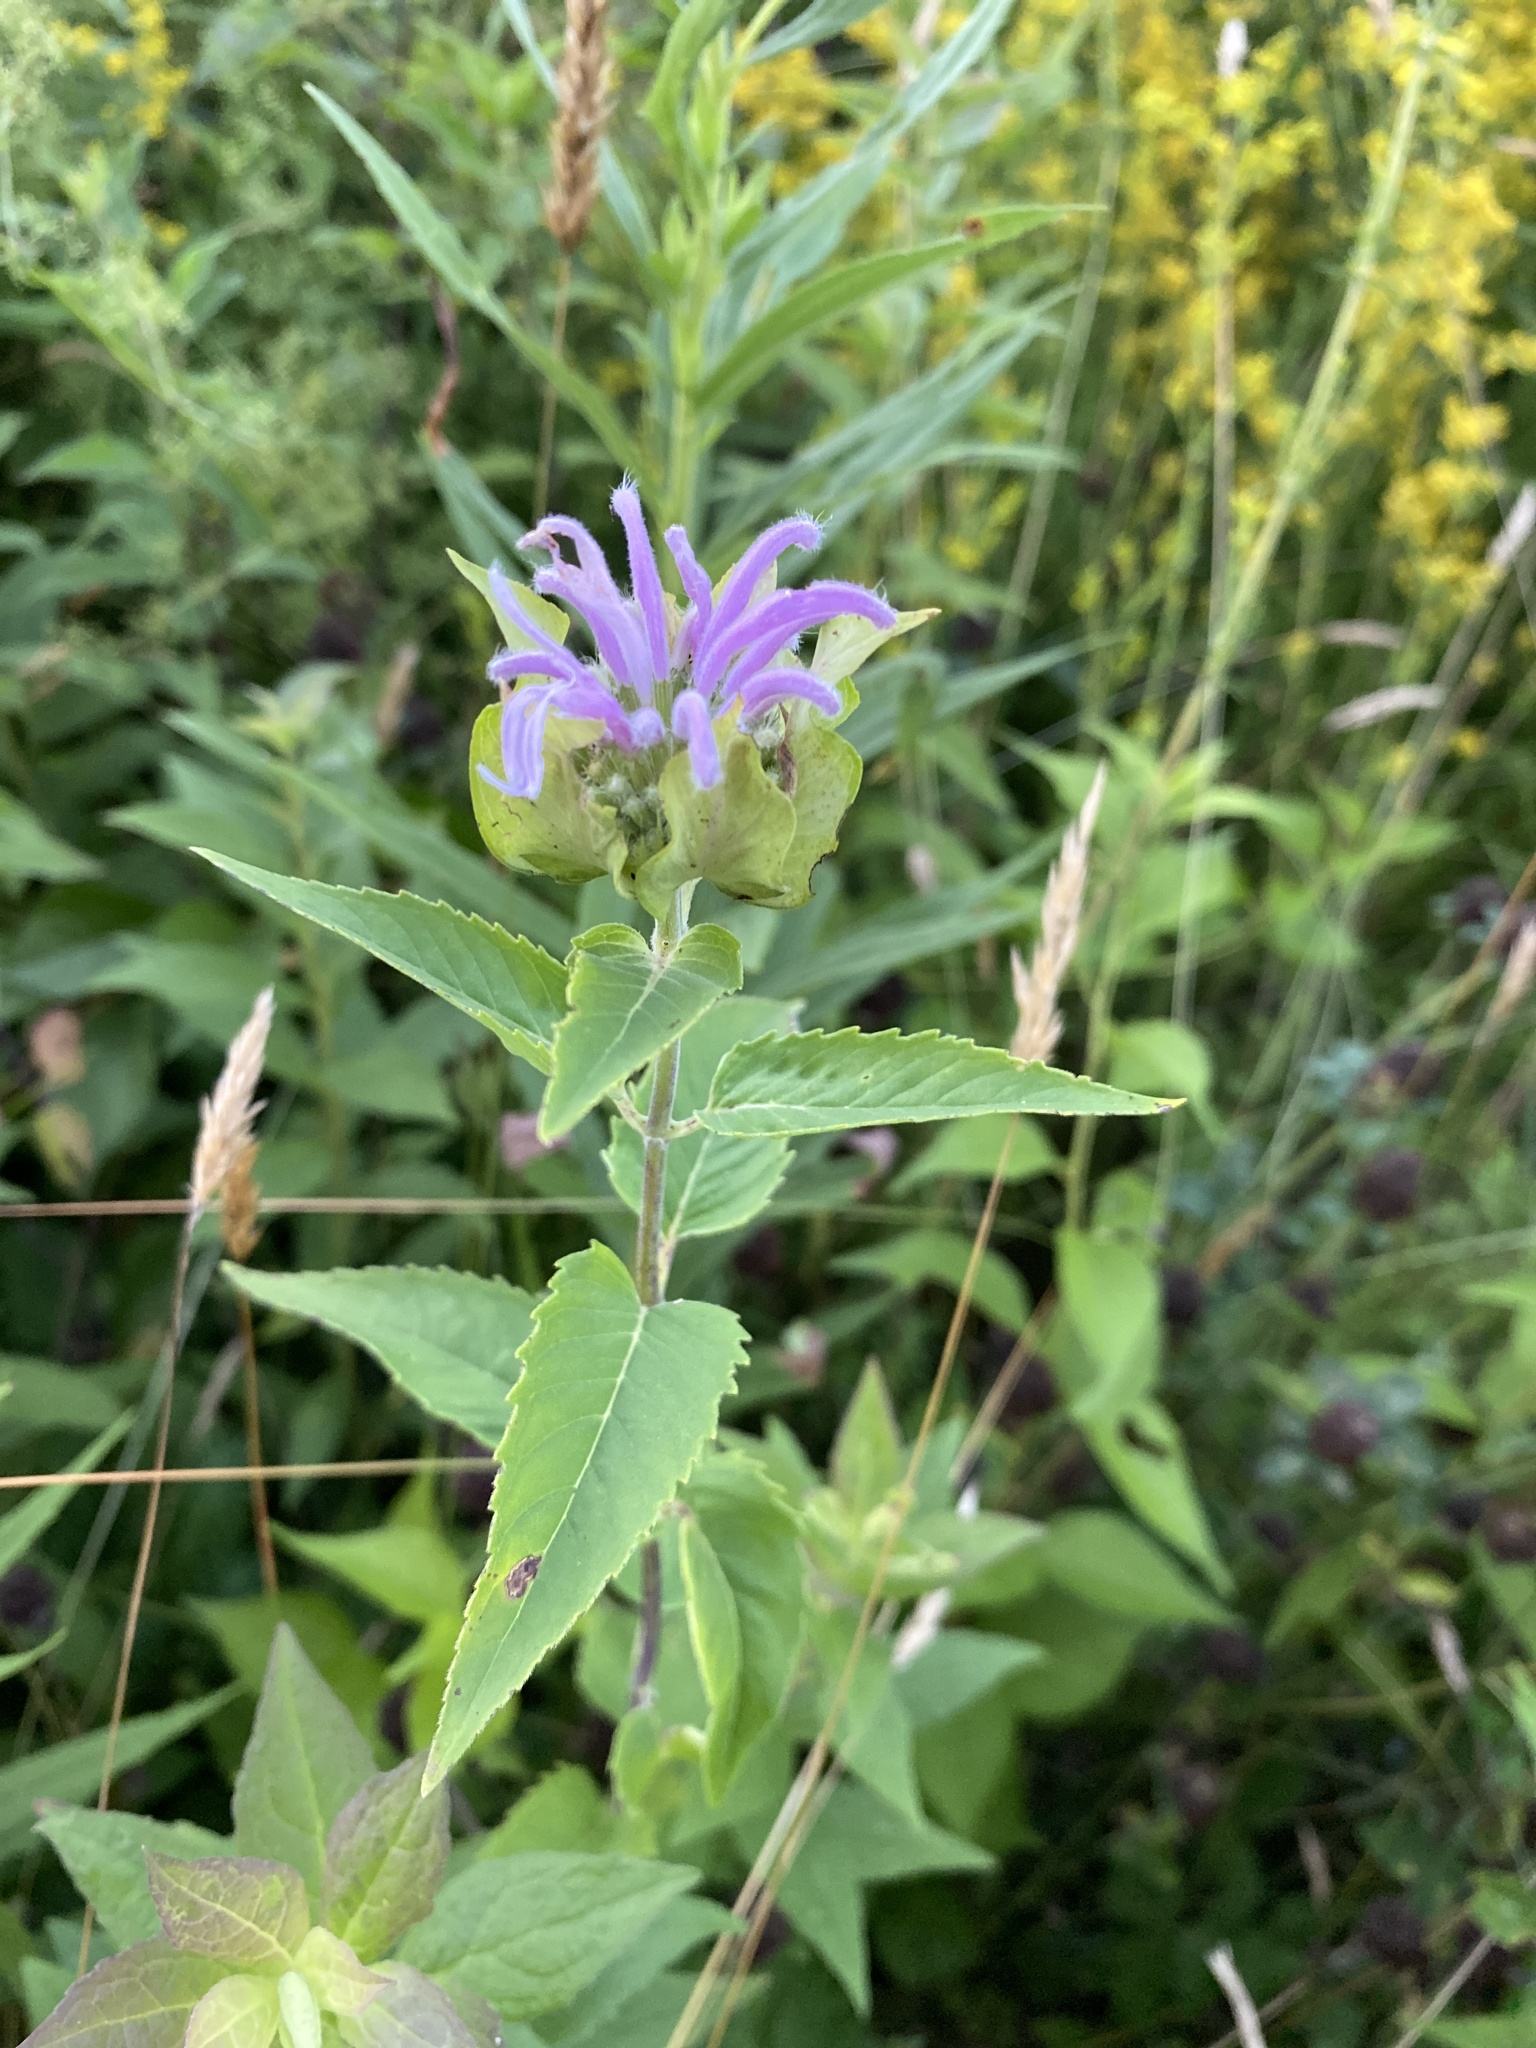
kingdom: Plantae
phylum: Tracheophyta
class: Magnoliopsida
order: Lamiales
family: Lamiaceae
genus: Monarda
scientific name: Monarda fistulosa
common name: Purple beebalm
